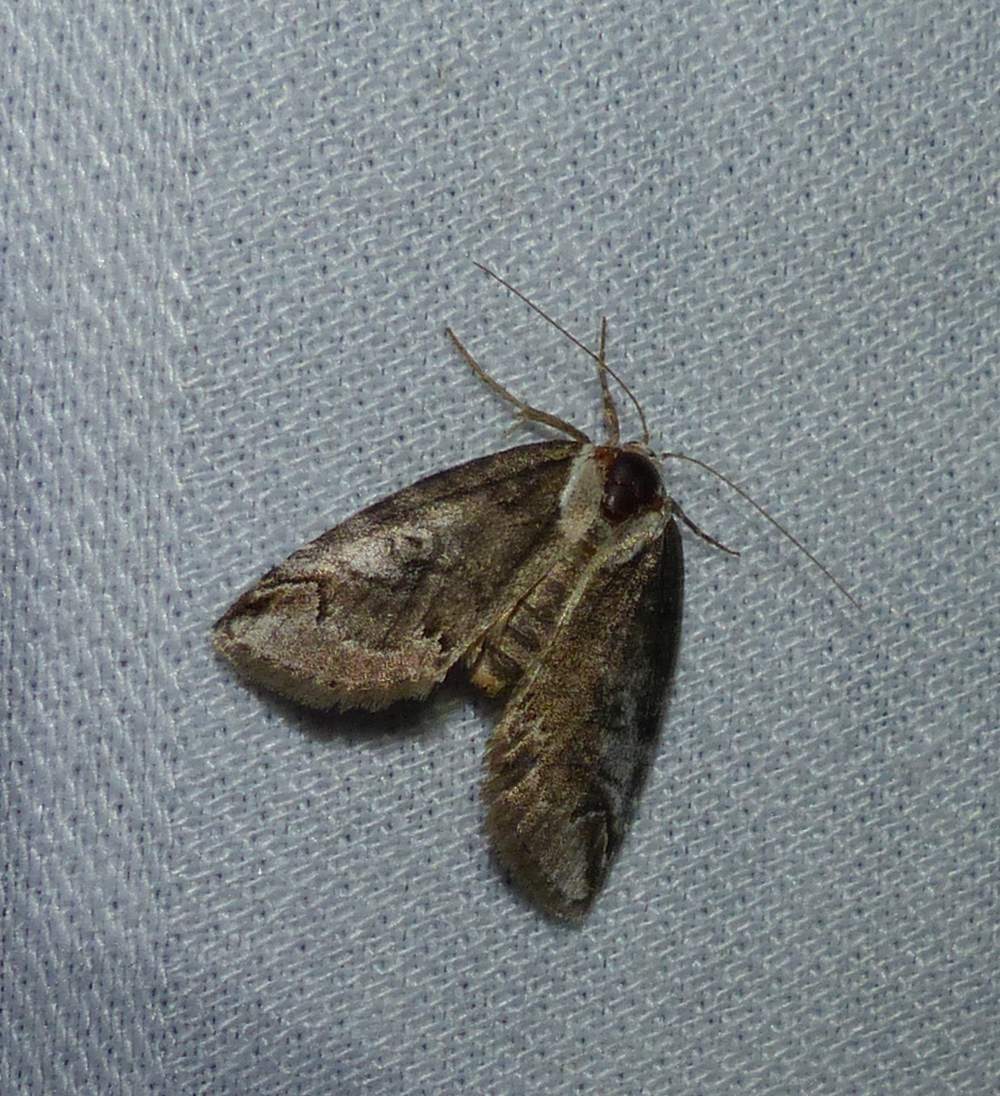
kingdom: Animalia
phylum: Arthropoda
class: Insecta
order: Lepidoptera
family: Nolidae
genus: Baileya
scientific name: Baileya ophthalmica
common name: Eyed baileya moth
